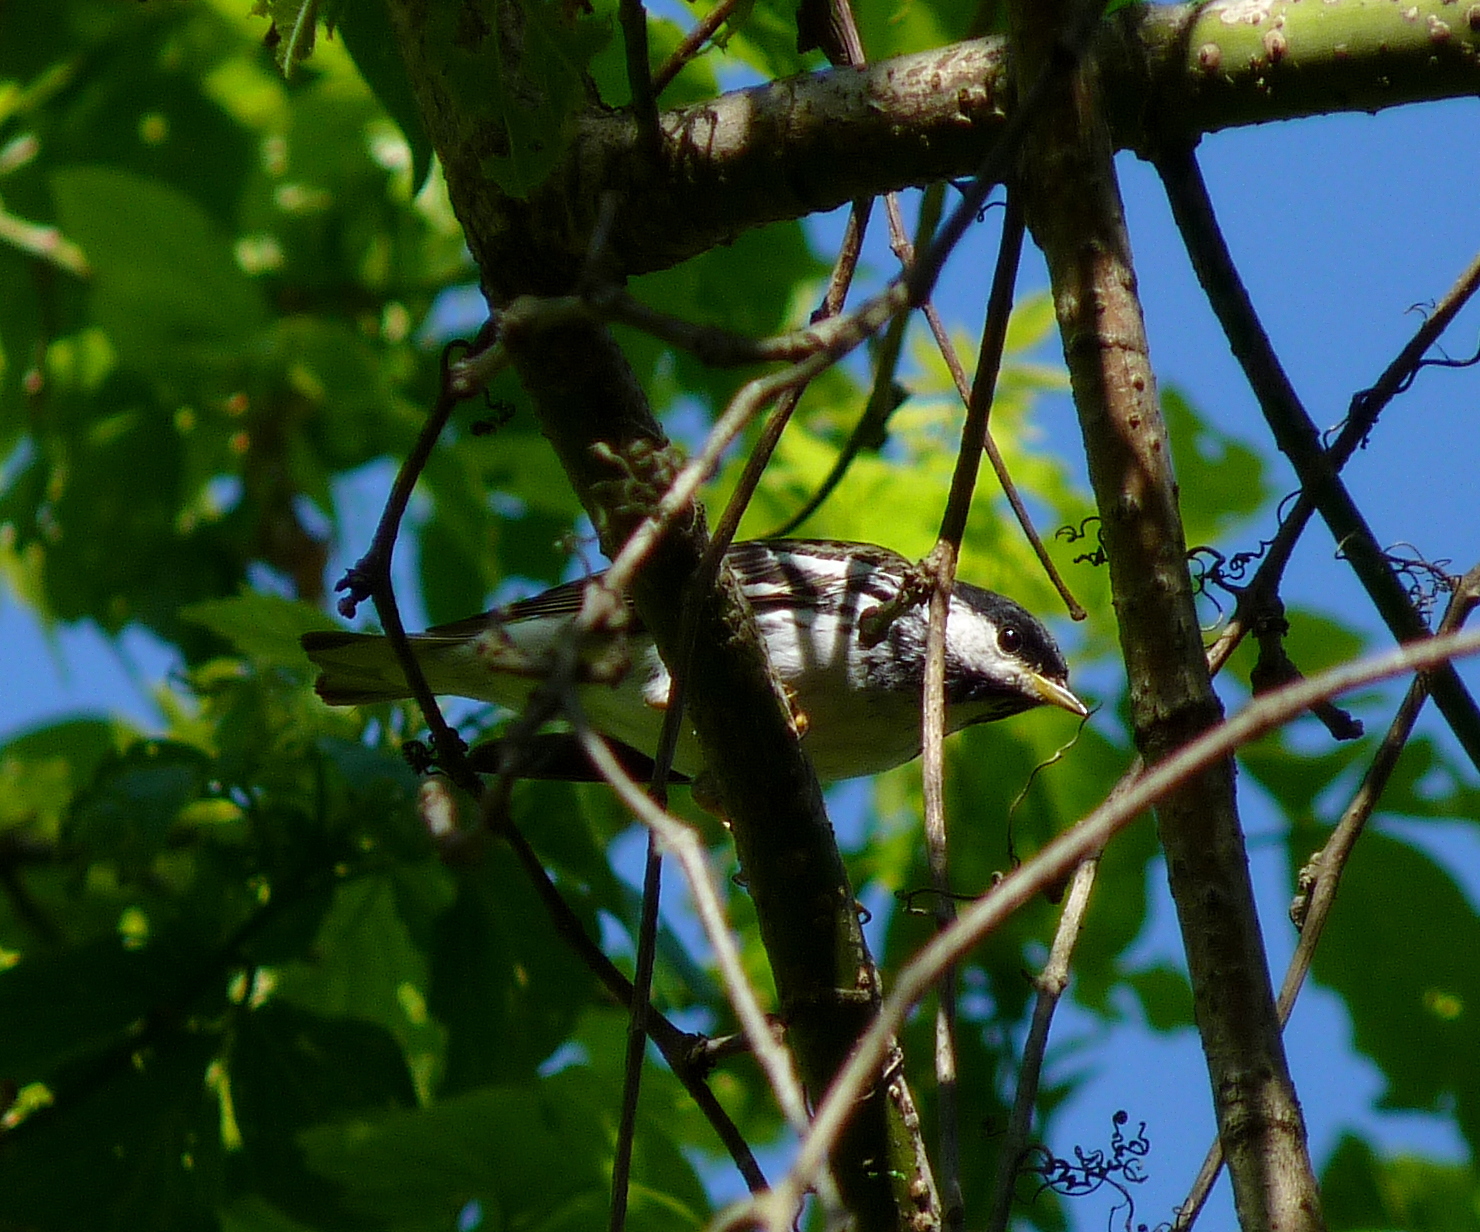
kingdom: Animalia
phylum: Chordata
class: Aves
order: Passeriformes
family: Parulidae
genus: Setophaga
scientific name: Setophaga striata
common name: Blackpoll warbler
